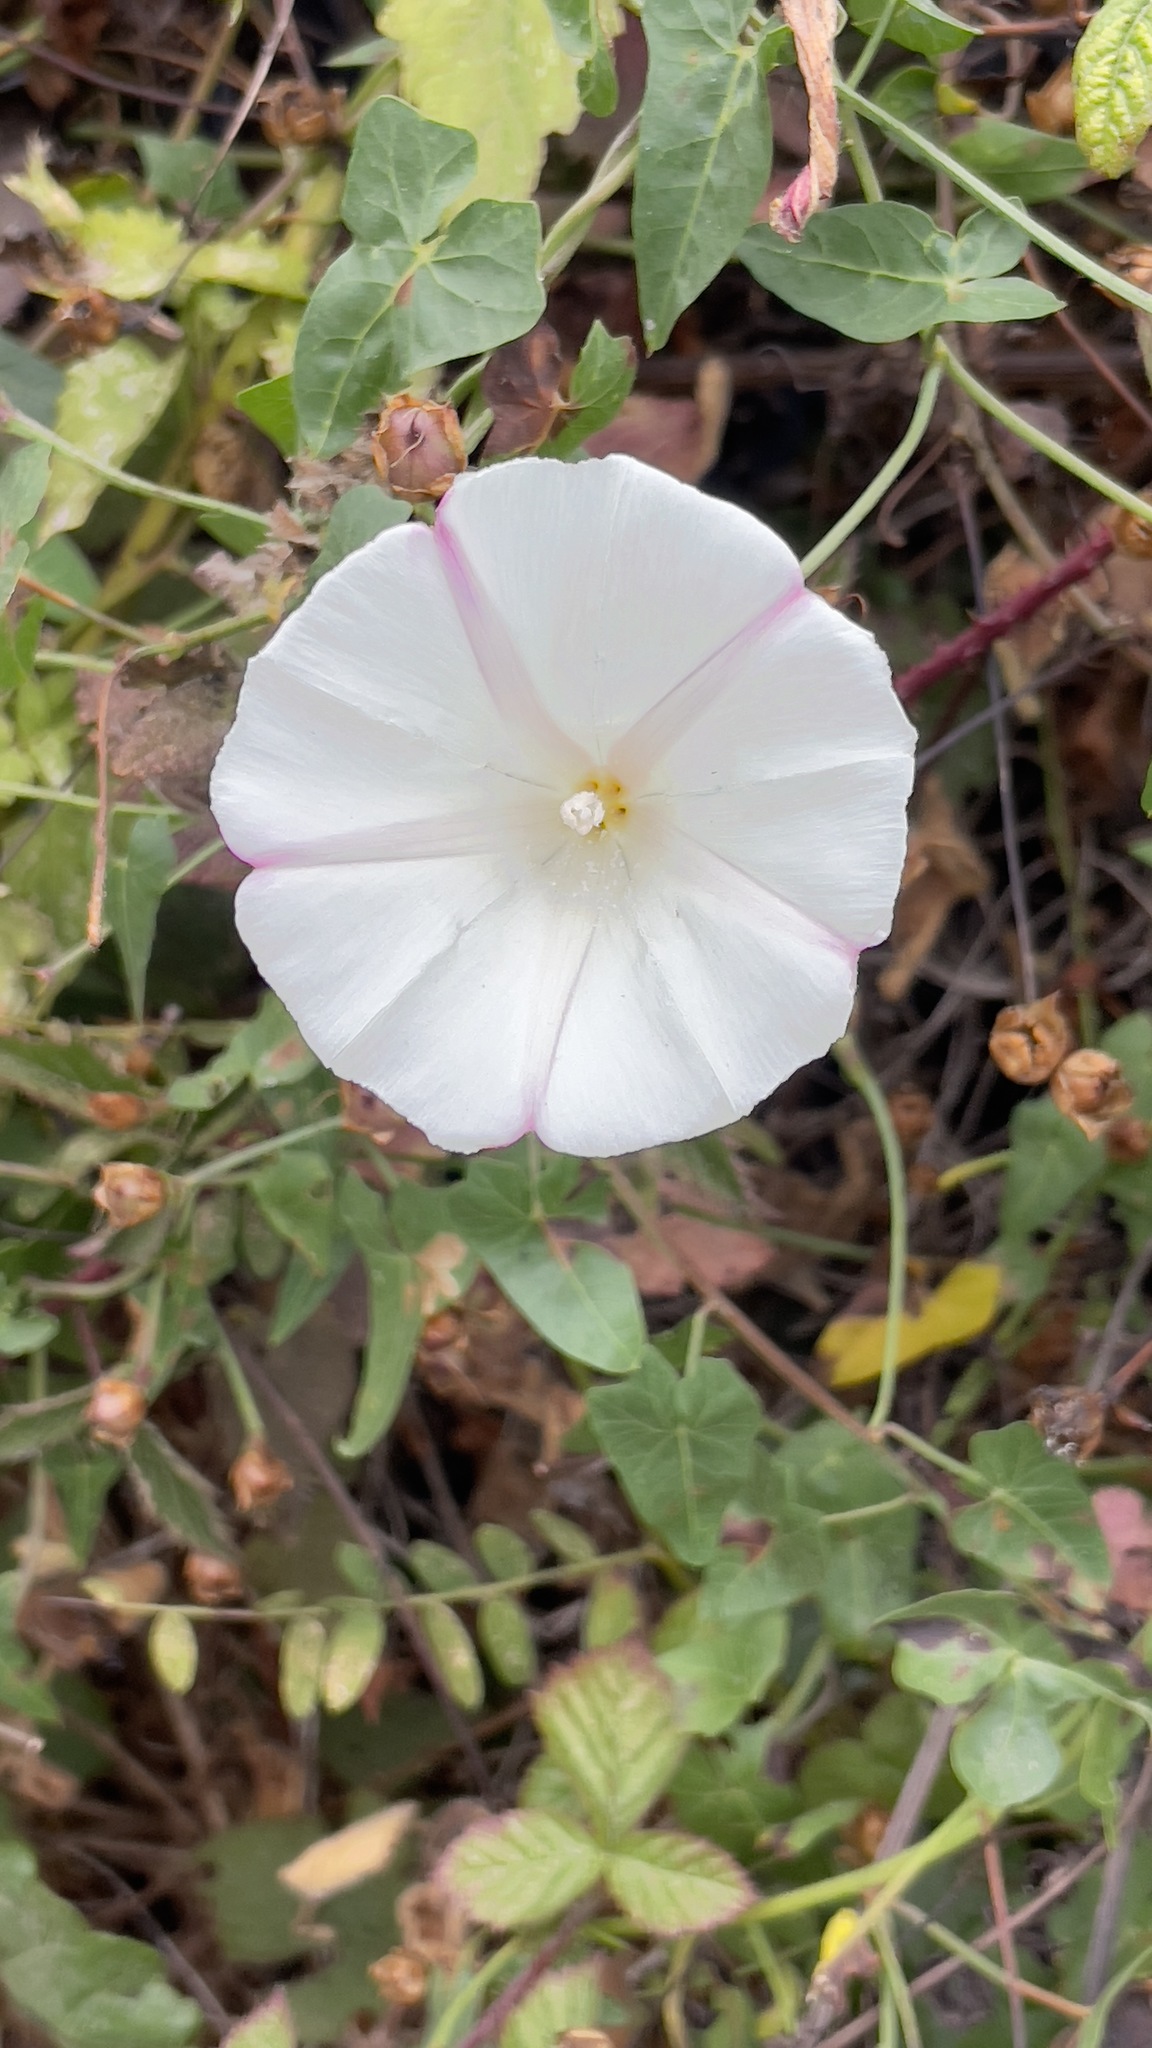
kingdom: Plantae
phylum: Tracheophyta
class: Magnoliopsida
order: Solanales
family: Convolvulaceae
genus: Calystegia
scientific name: Calystegia purpurata
